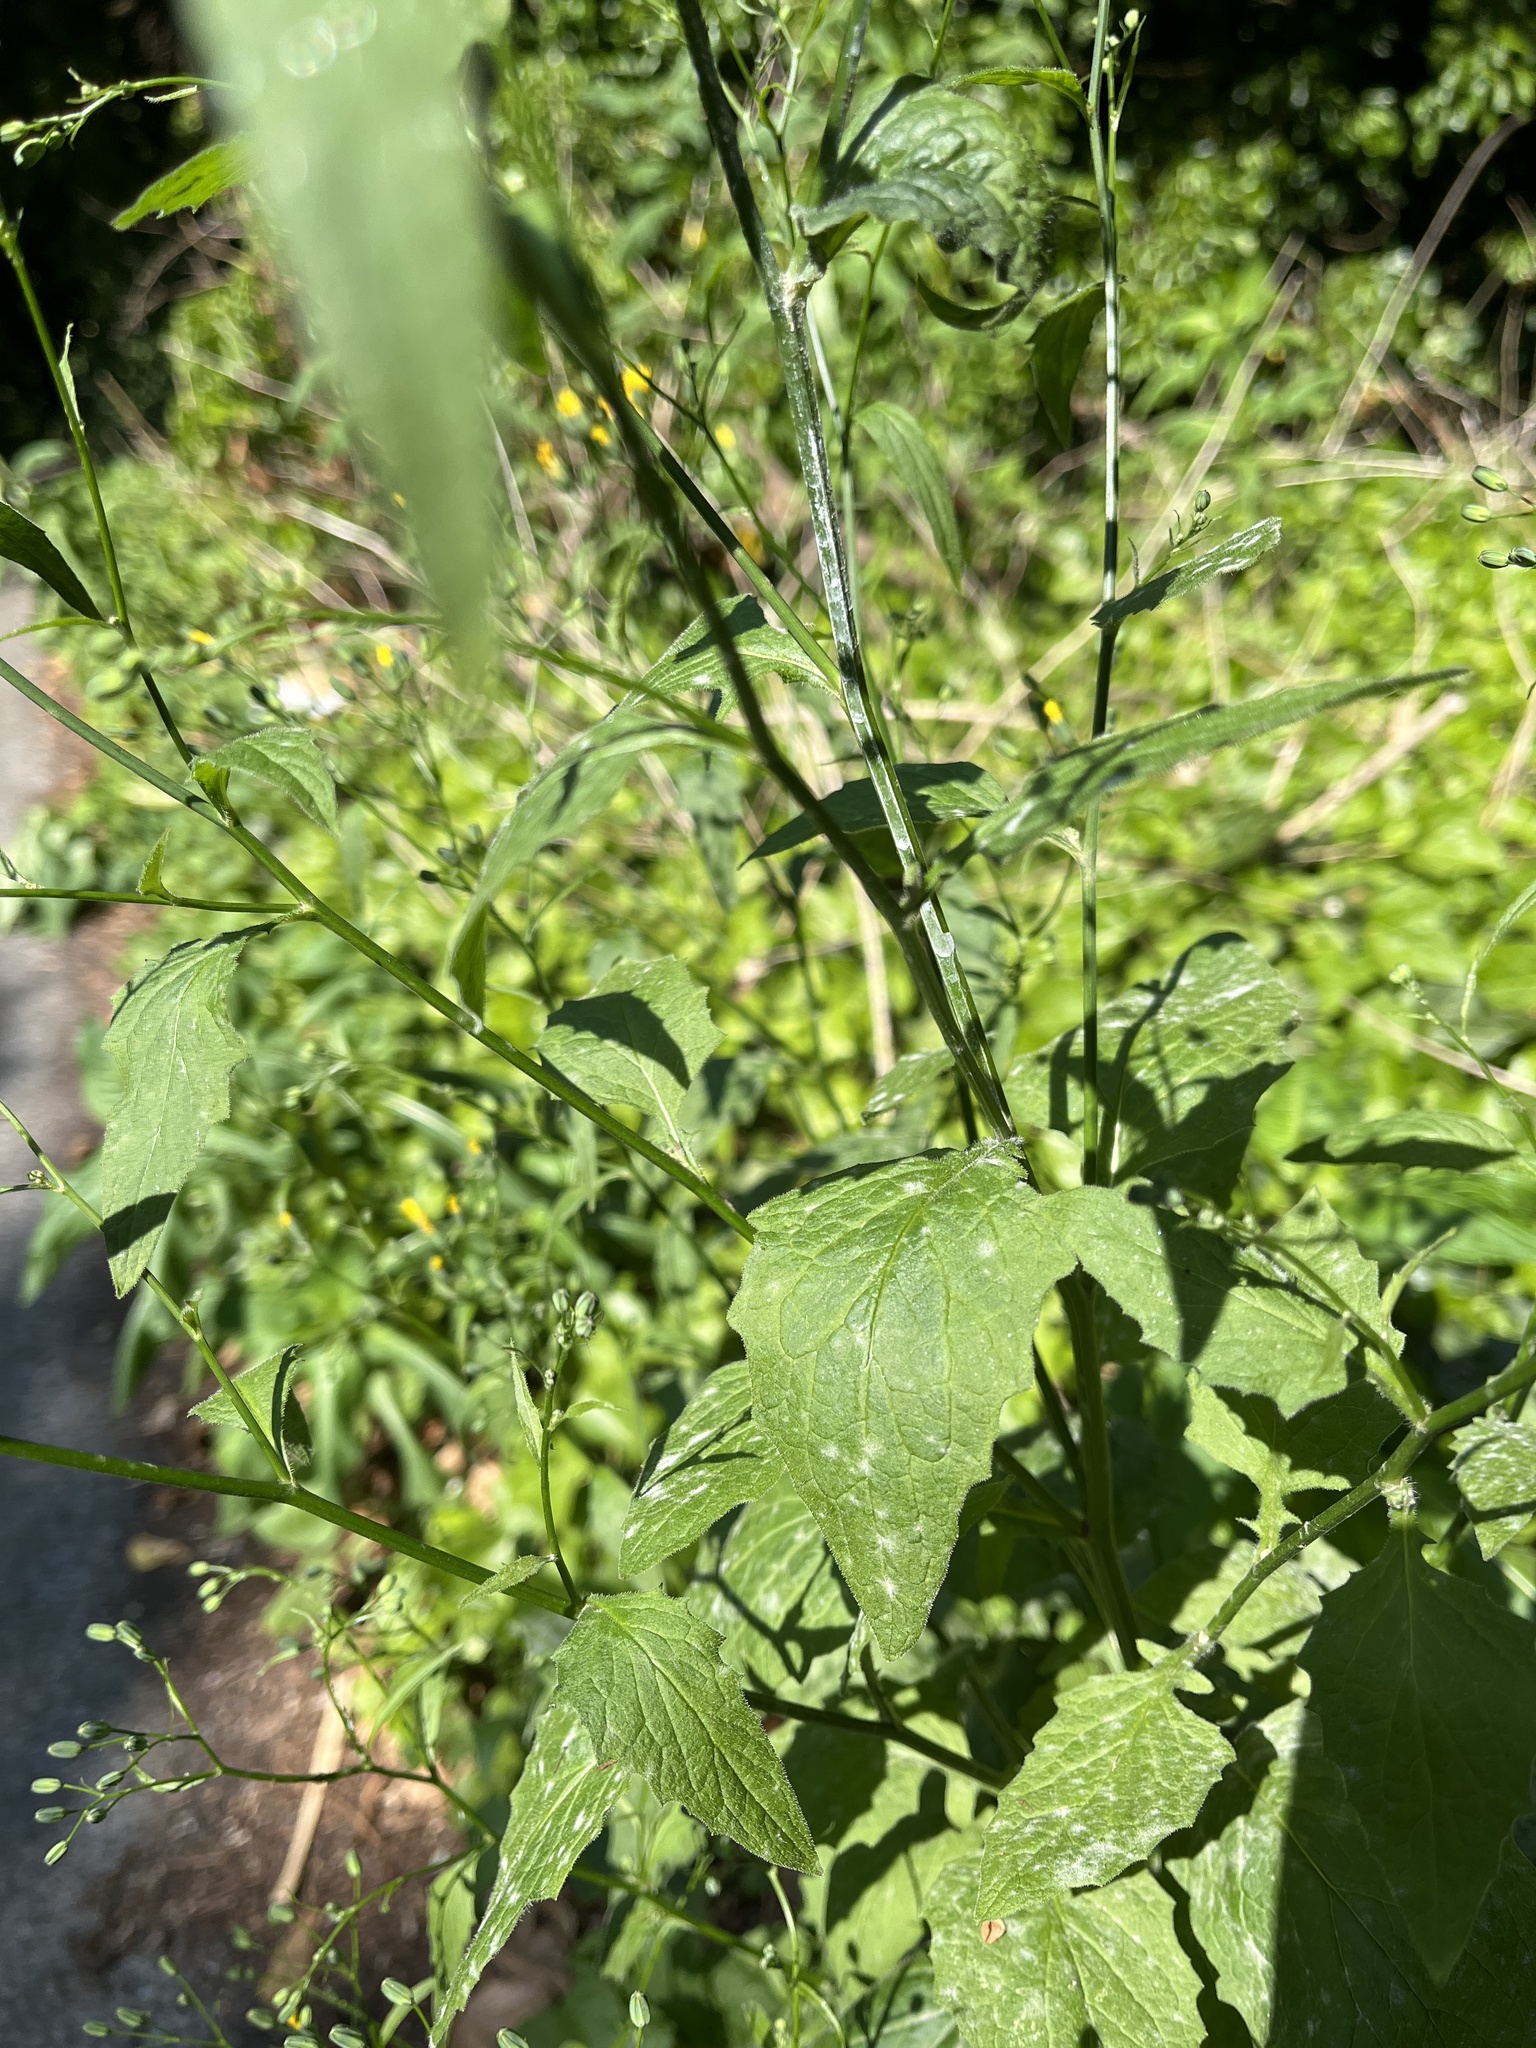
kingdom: Fungi
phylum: Ascomycota
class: Leotiomycetes
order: Helotiales
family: Erysiphaceae
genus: Neoerysiphe
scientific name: Neoerysiphe nevoi
